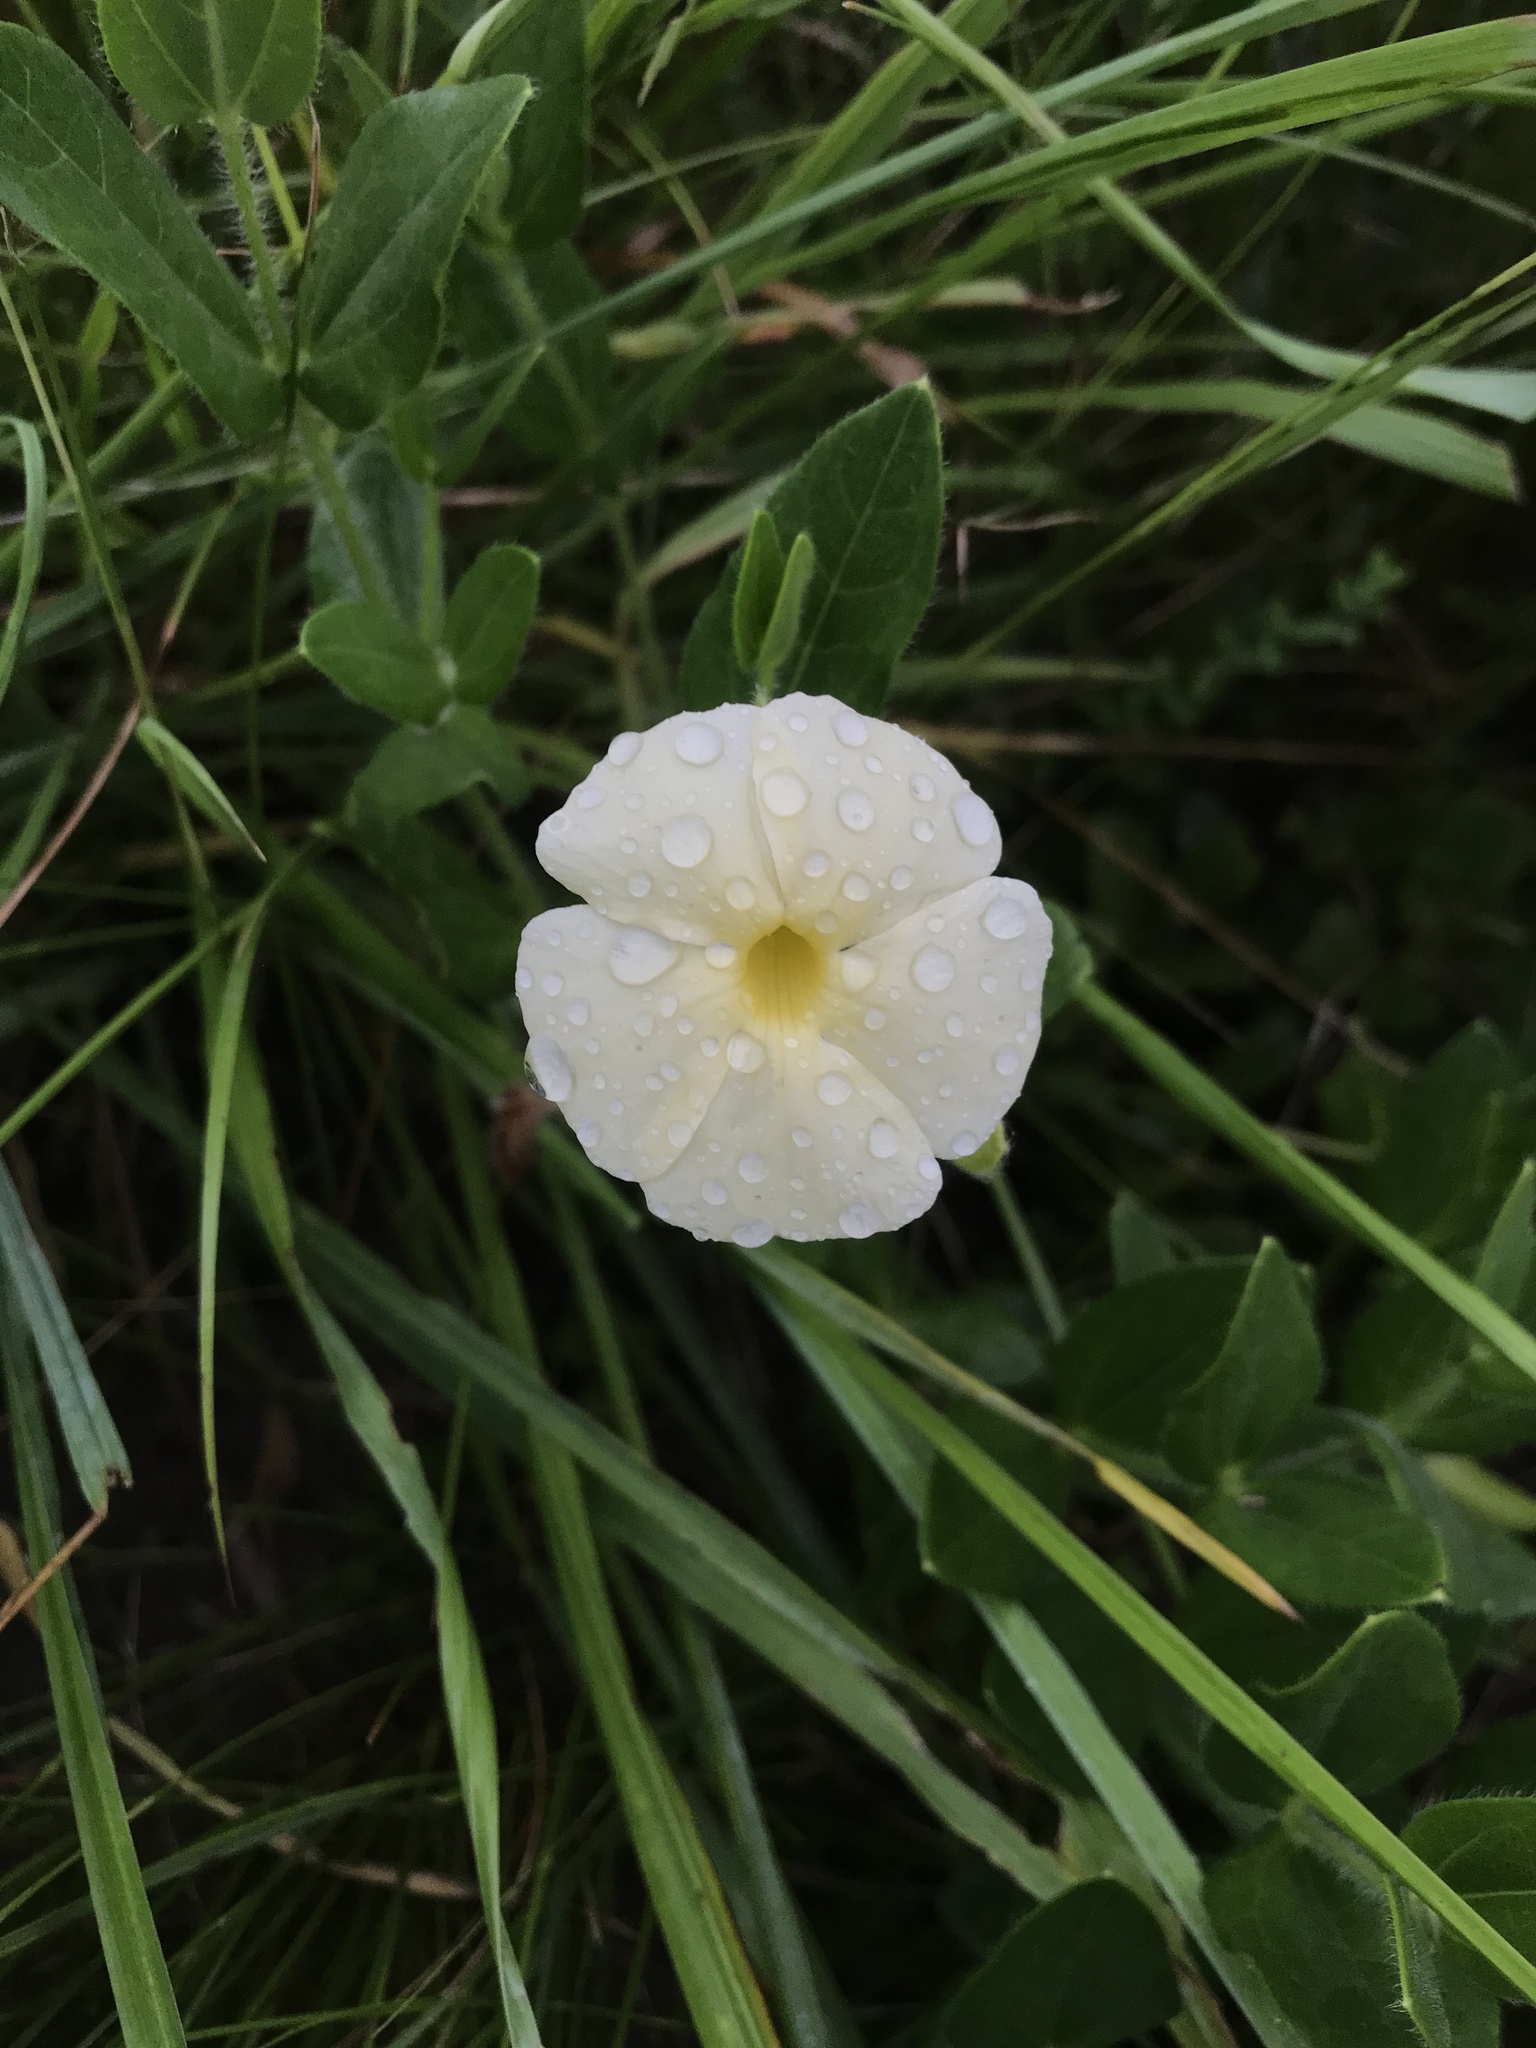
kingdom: Plantae
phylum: Tracheophyta
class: Magnoliopsida
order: Lamiales
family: Acanthaceae
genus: Thunbergia
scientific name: Thunbergia atriplicifolia
